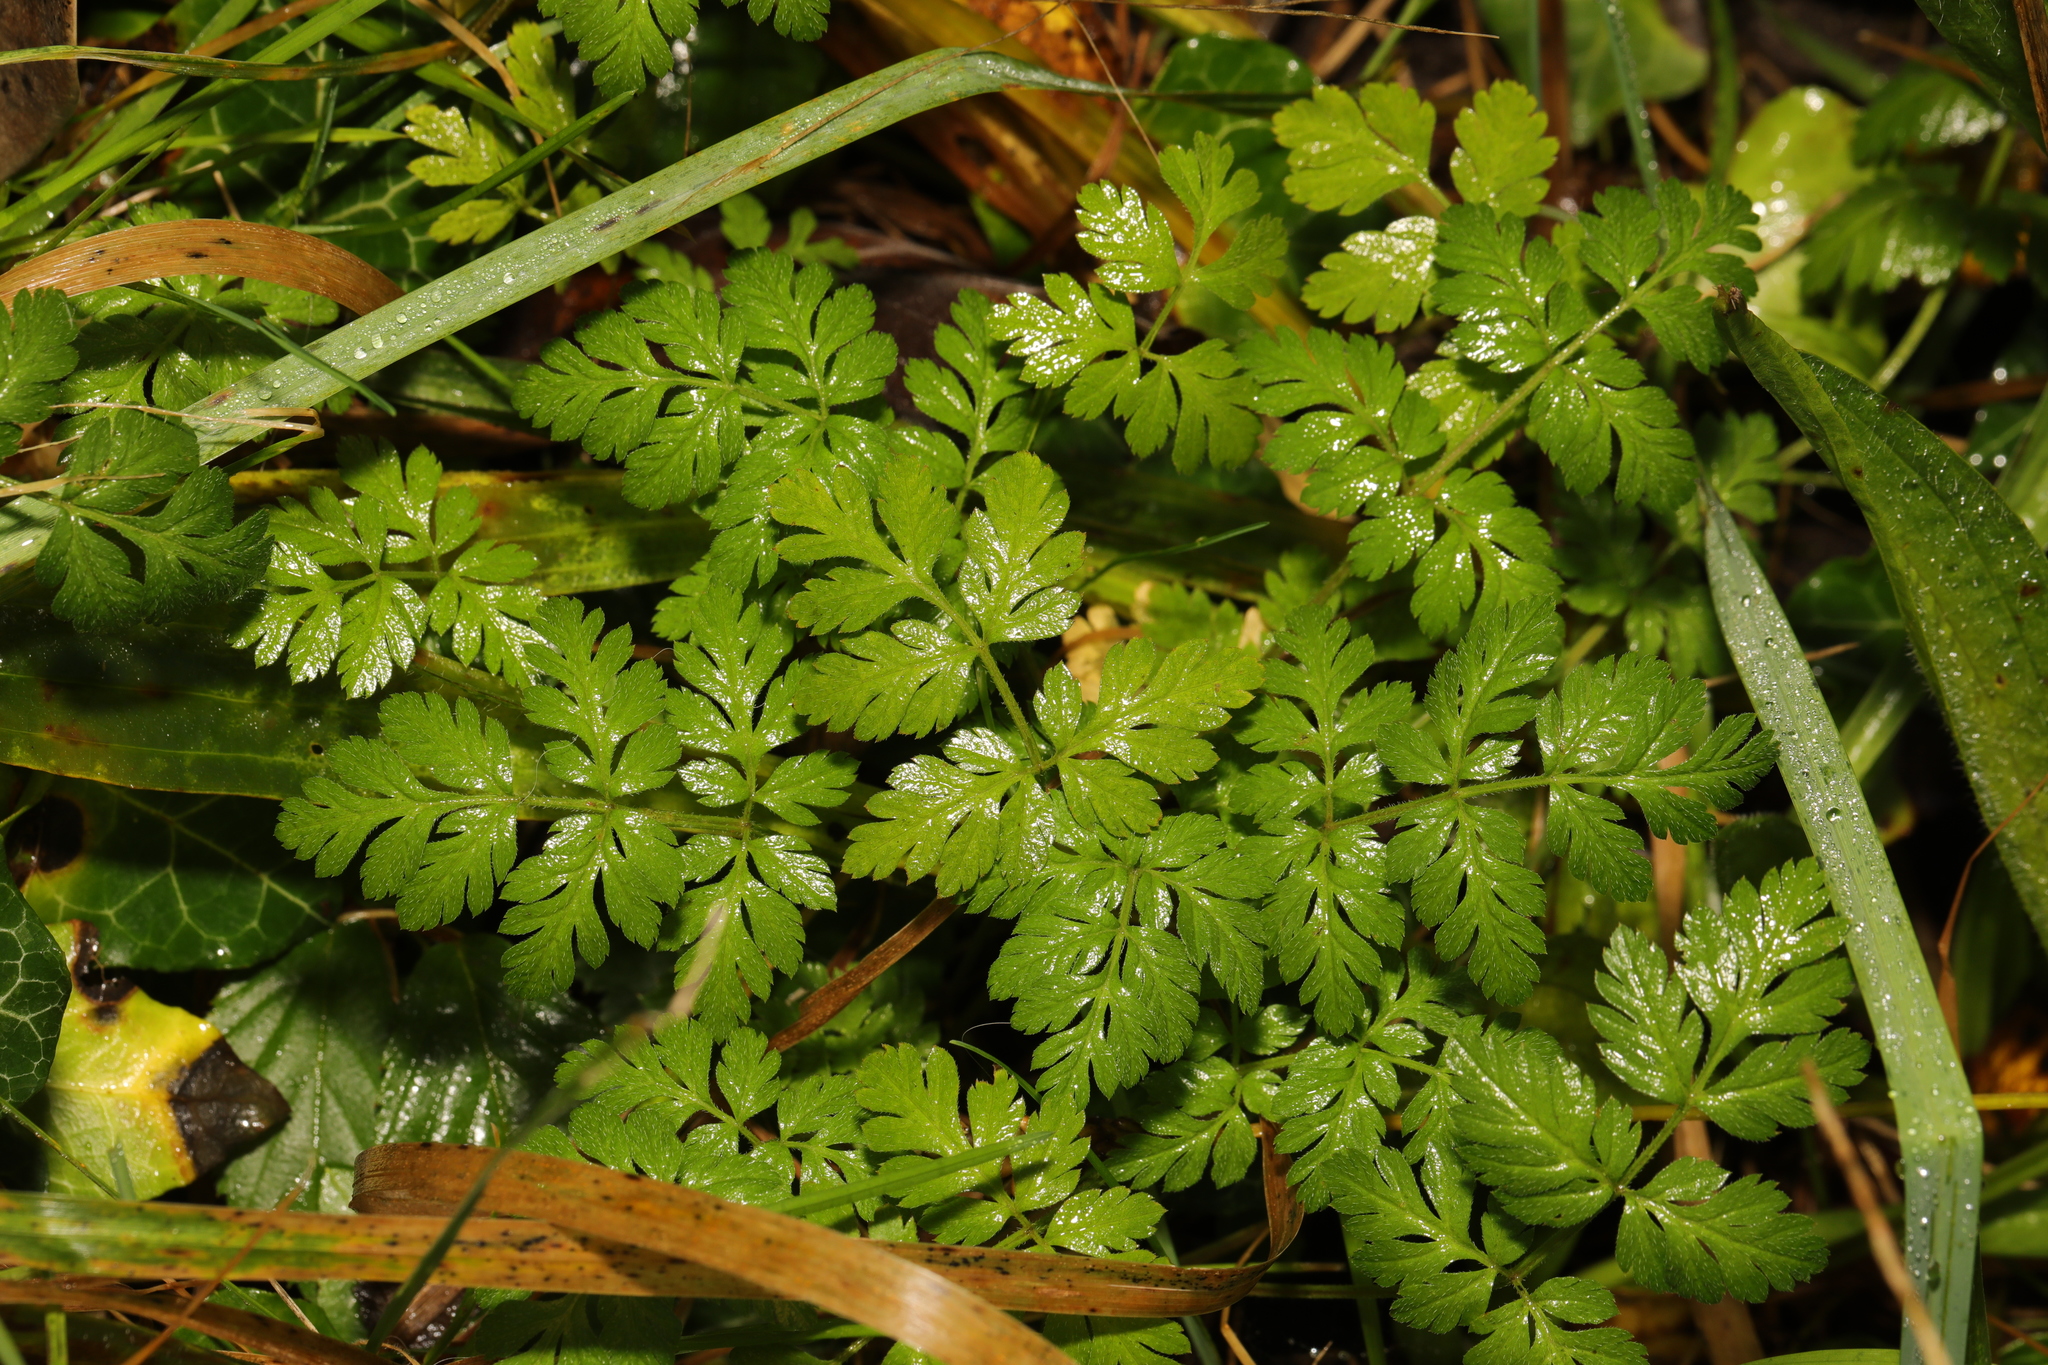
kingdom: Plantae
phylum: Tracheophyta
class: Magnoliopsida
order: Apiales
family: Apiaceae
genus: Anthriscus
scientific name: Anthriscus sylvestris
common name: Cow parsley
